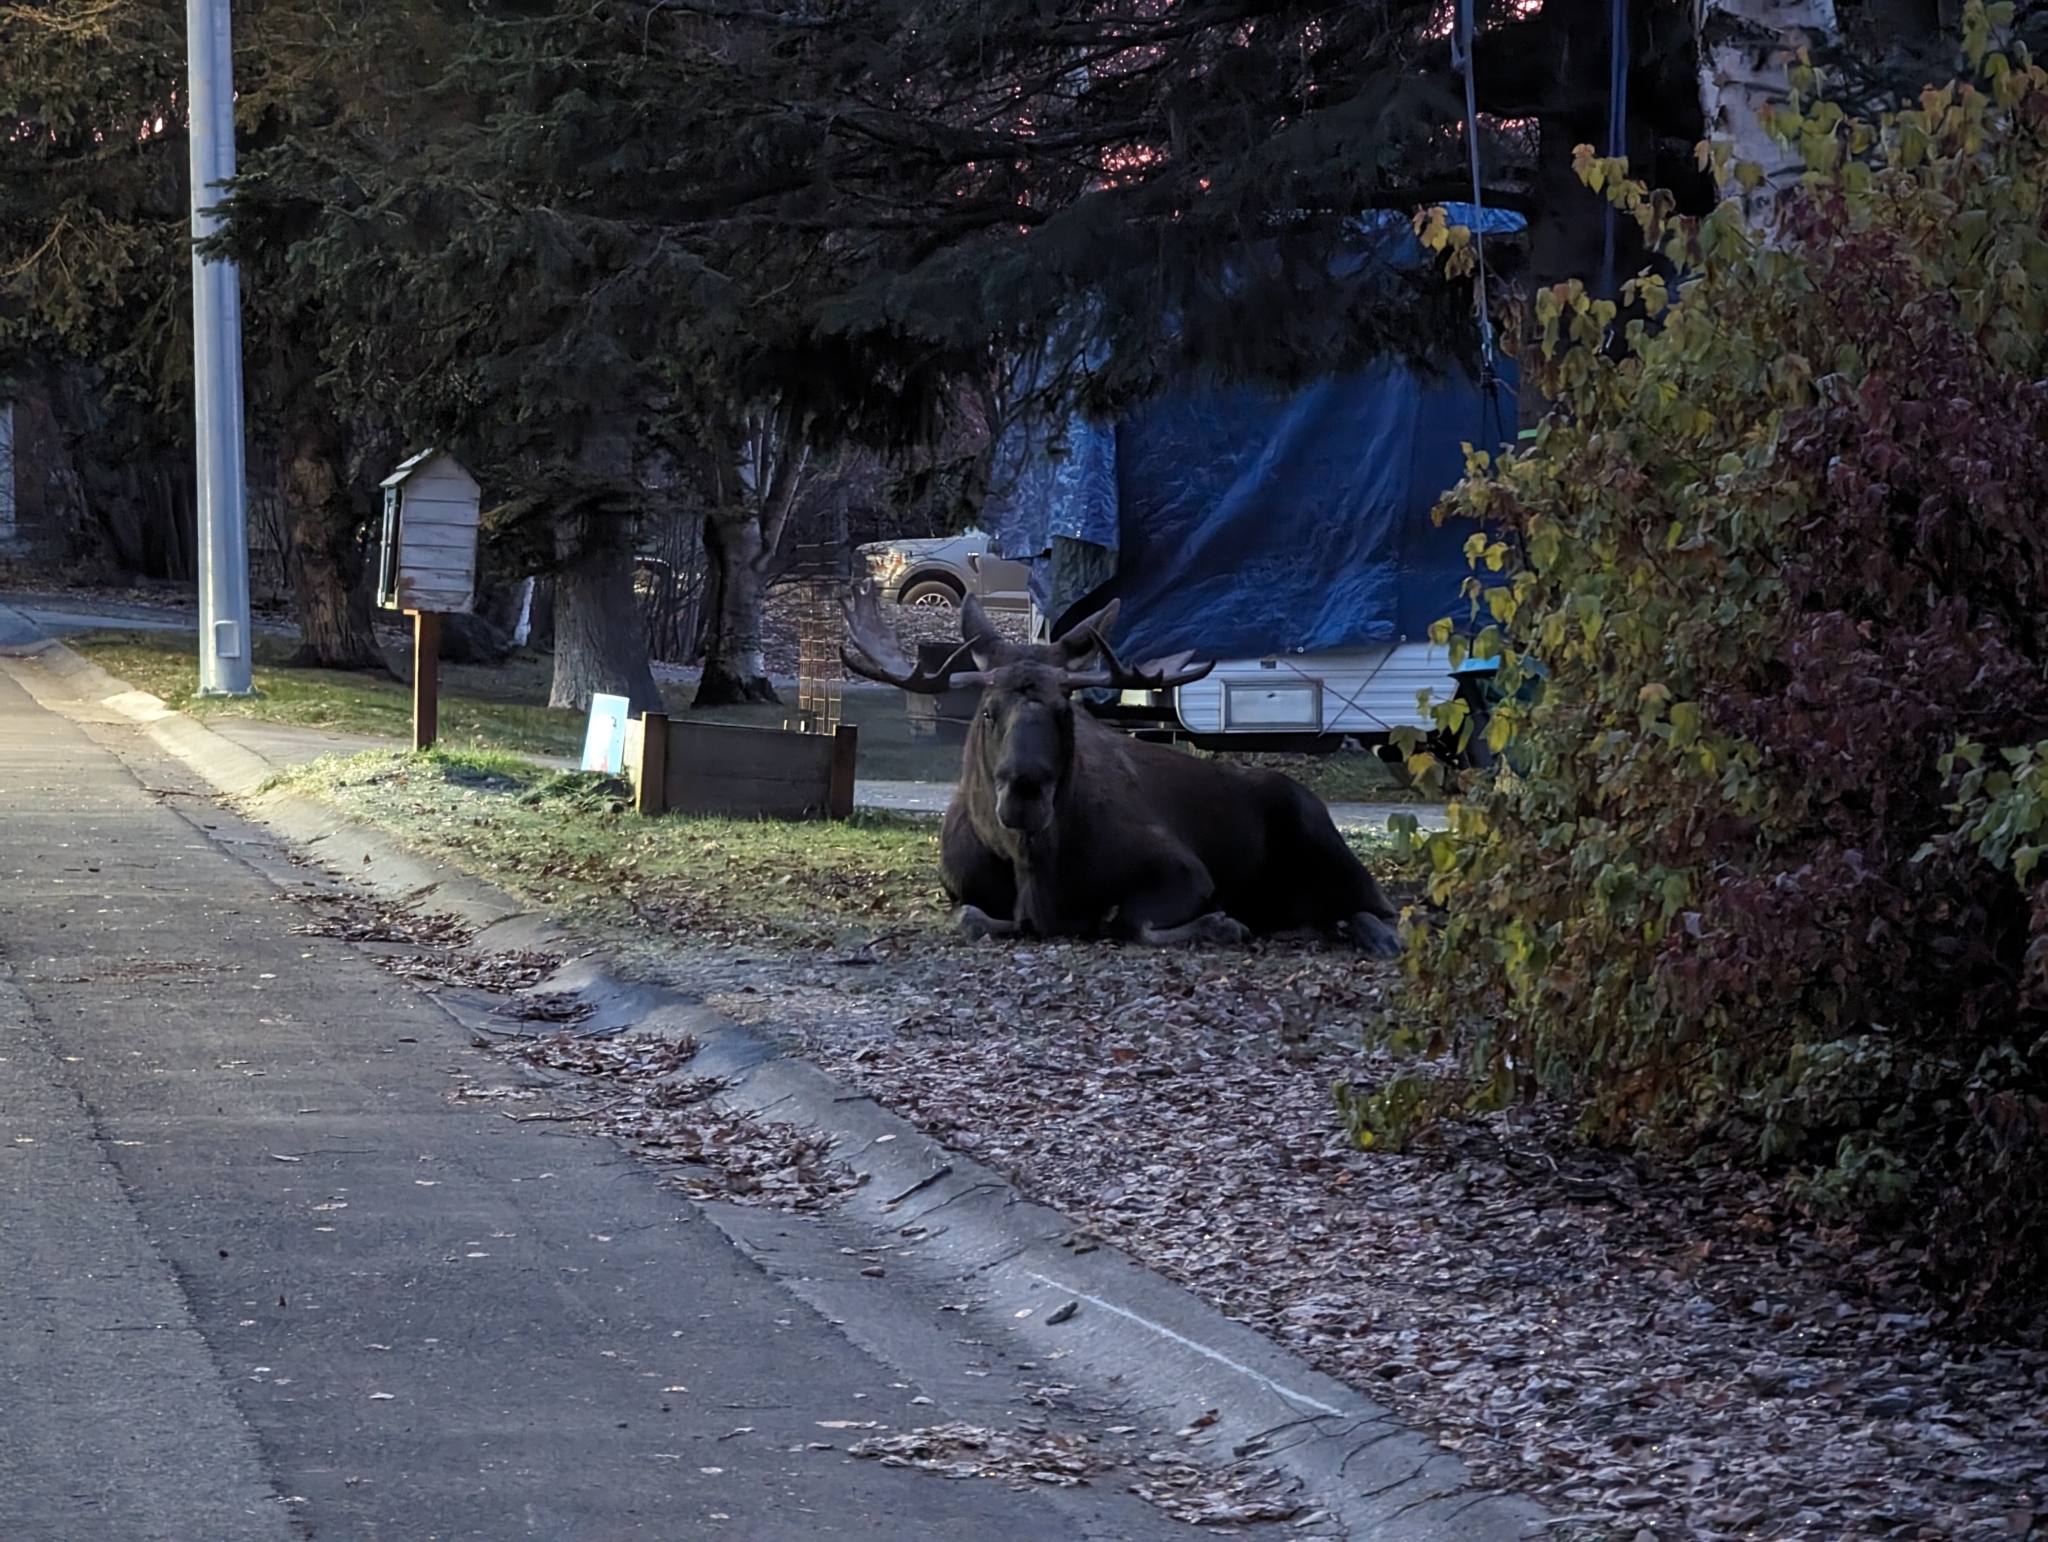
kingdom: Animalia
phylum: Chordata
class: Mammalia
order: Artiodactyla
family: Cervidae
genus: Alces
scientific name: Alces alces
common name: Moose
